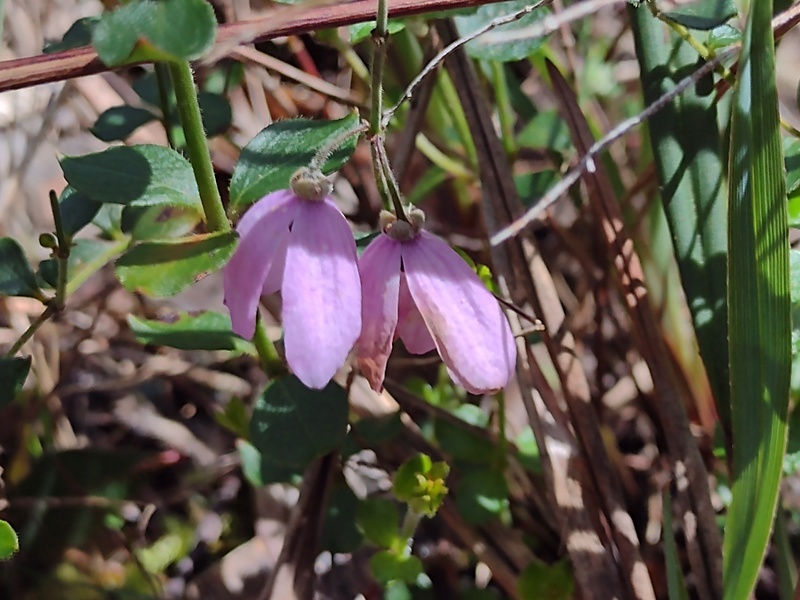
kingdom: Plantae
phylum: Tracheophyta
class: Magnoliopsida
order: Oxalidales
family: Elaeocarpaceae
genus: Tetratheca
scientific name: Tetratheca ciliata
